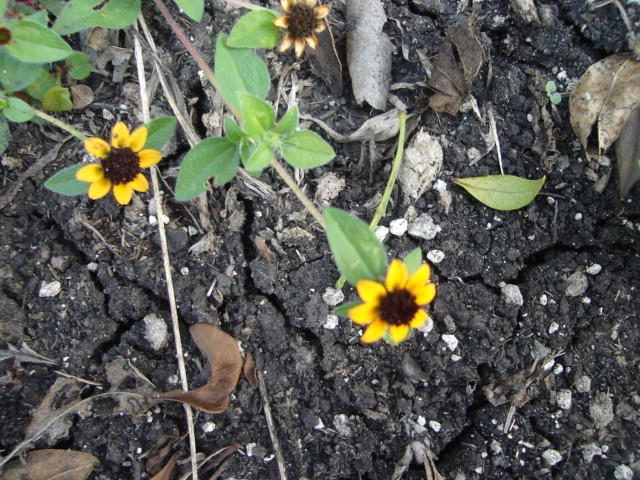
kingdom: Plantae
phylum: Tracheophyta
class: Magnoliopsida
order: Asterales
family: Asteraceae
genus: Sanvitalia
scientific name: Sanvitalia procumbens
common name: Mexican creeping zinnia
